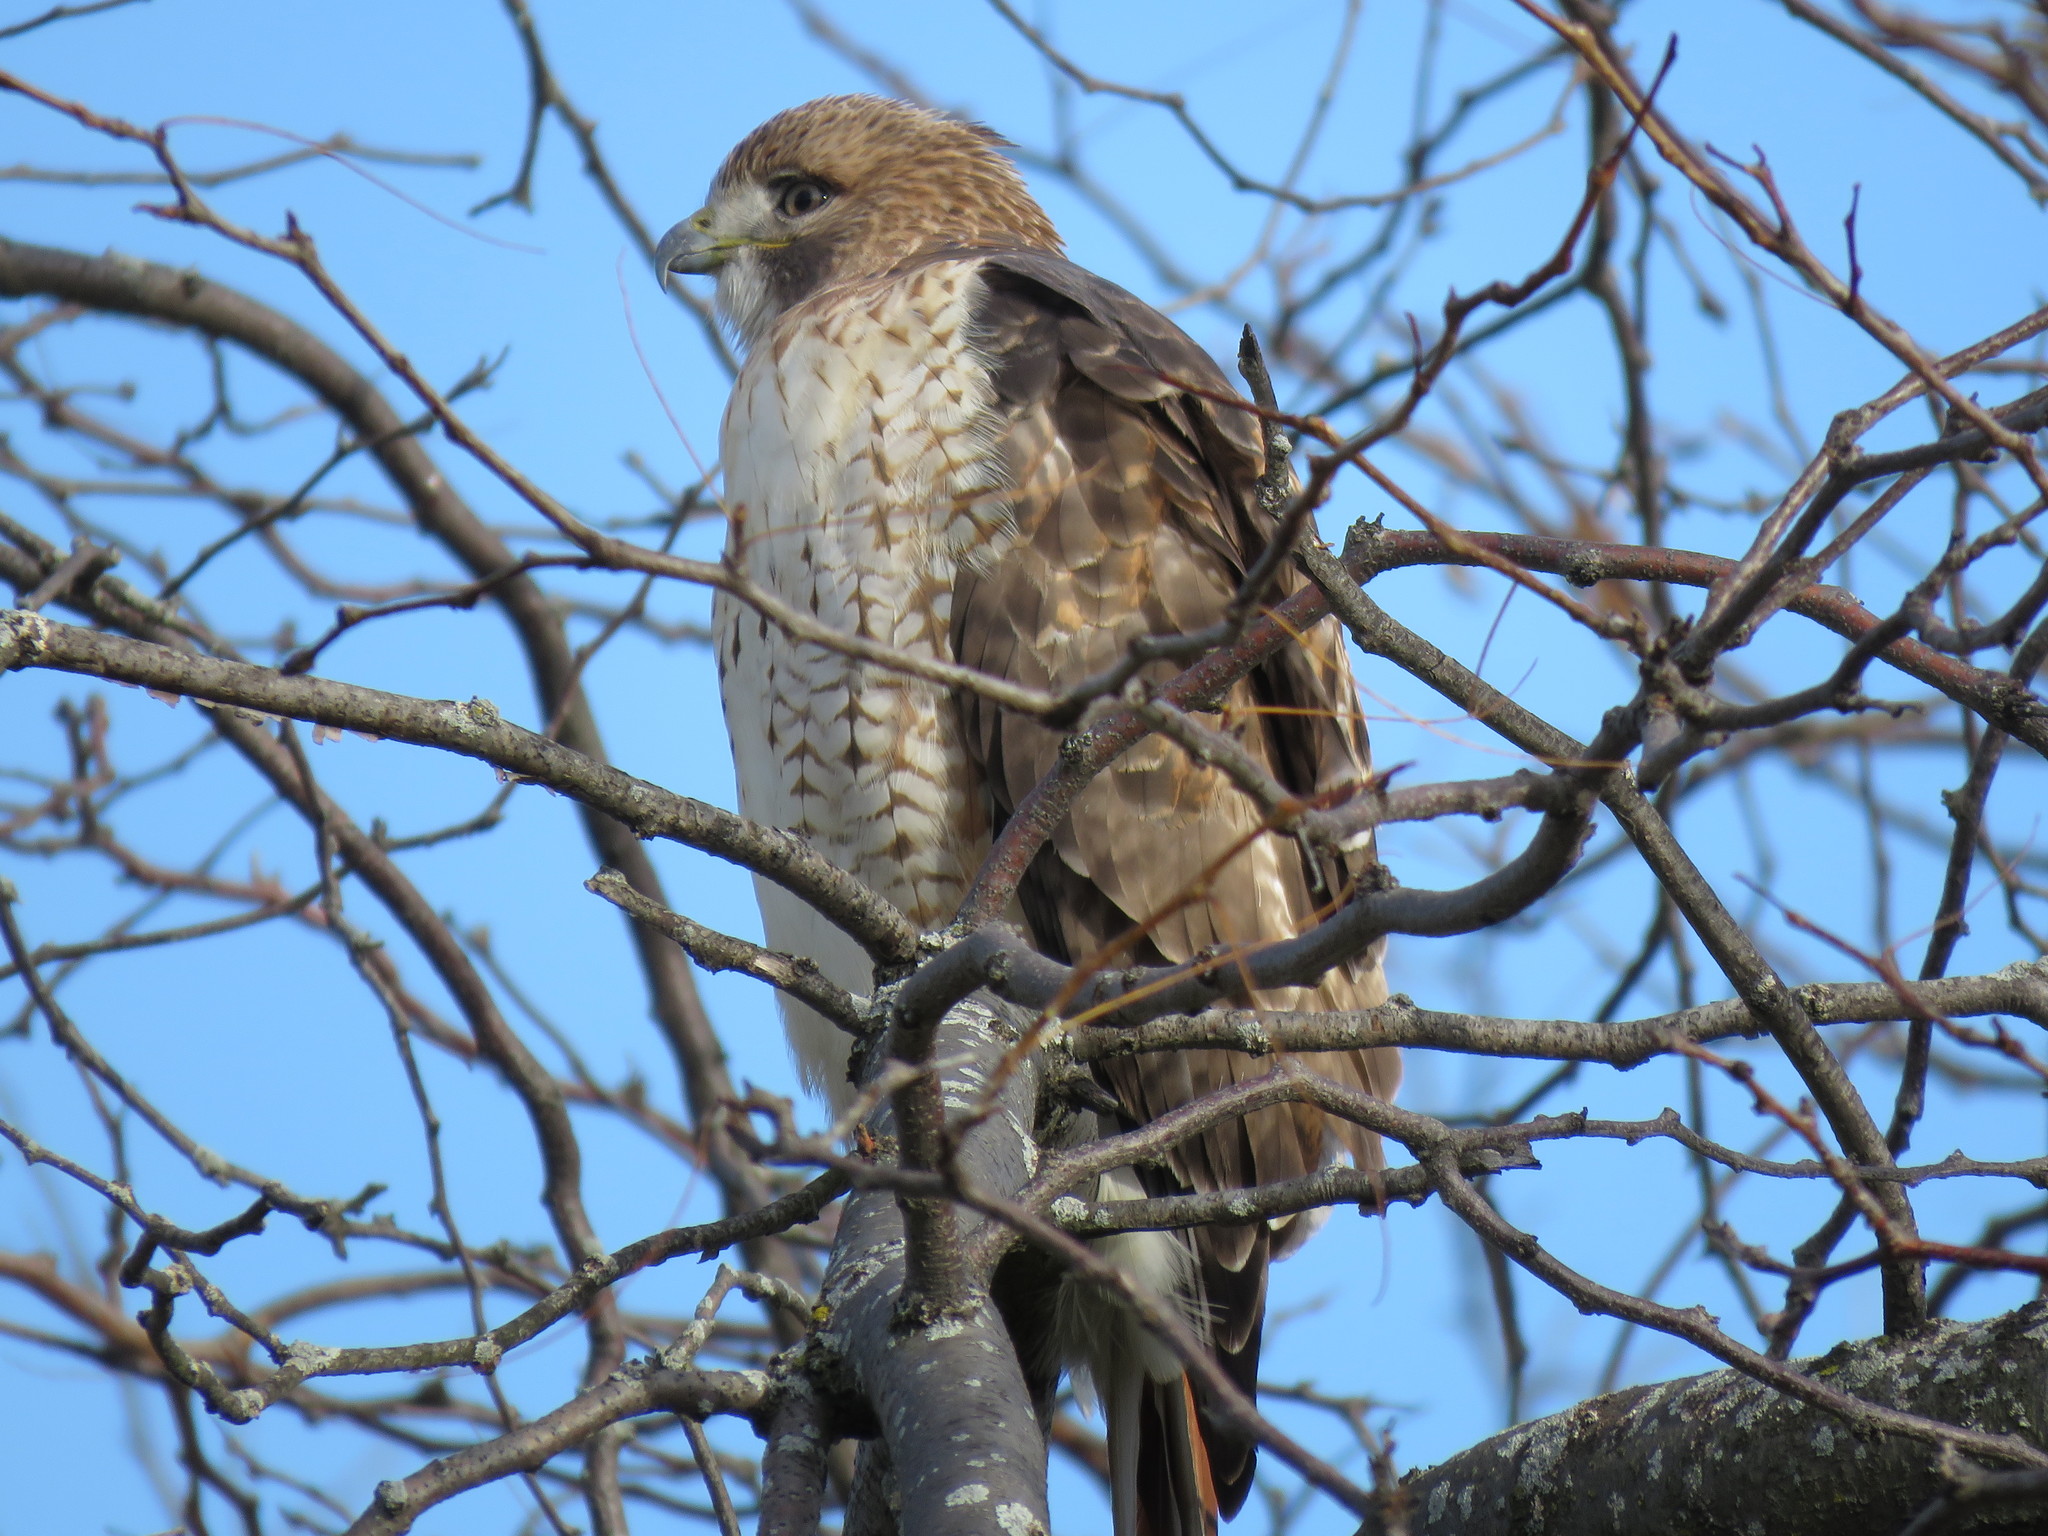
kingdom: Animalia
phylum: Chordata
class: Aves
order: Accipitriformes
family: Accipitridae
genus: Buteo
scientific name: Buteo jamaicensis
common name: Red-tailed hawk
